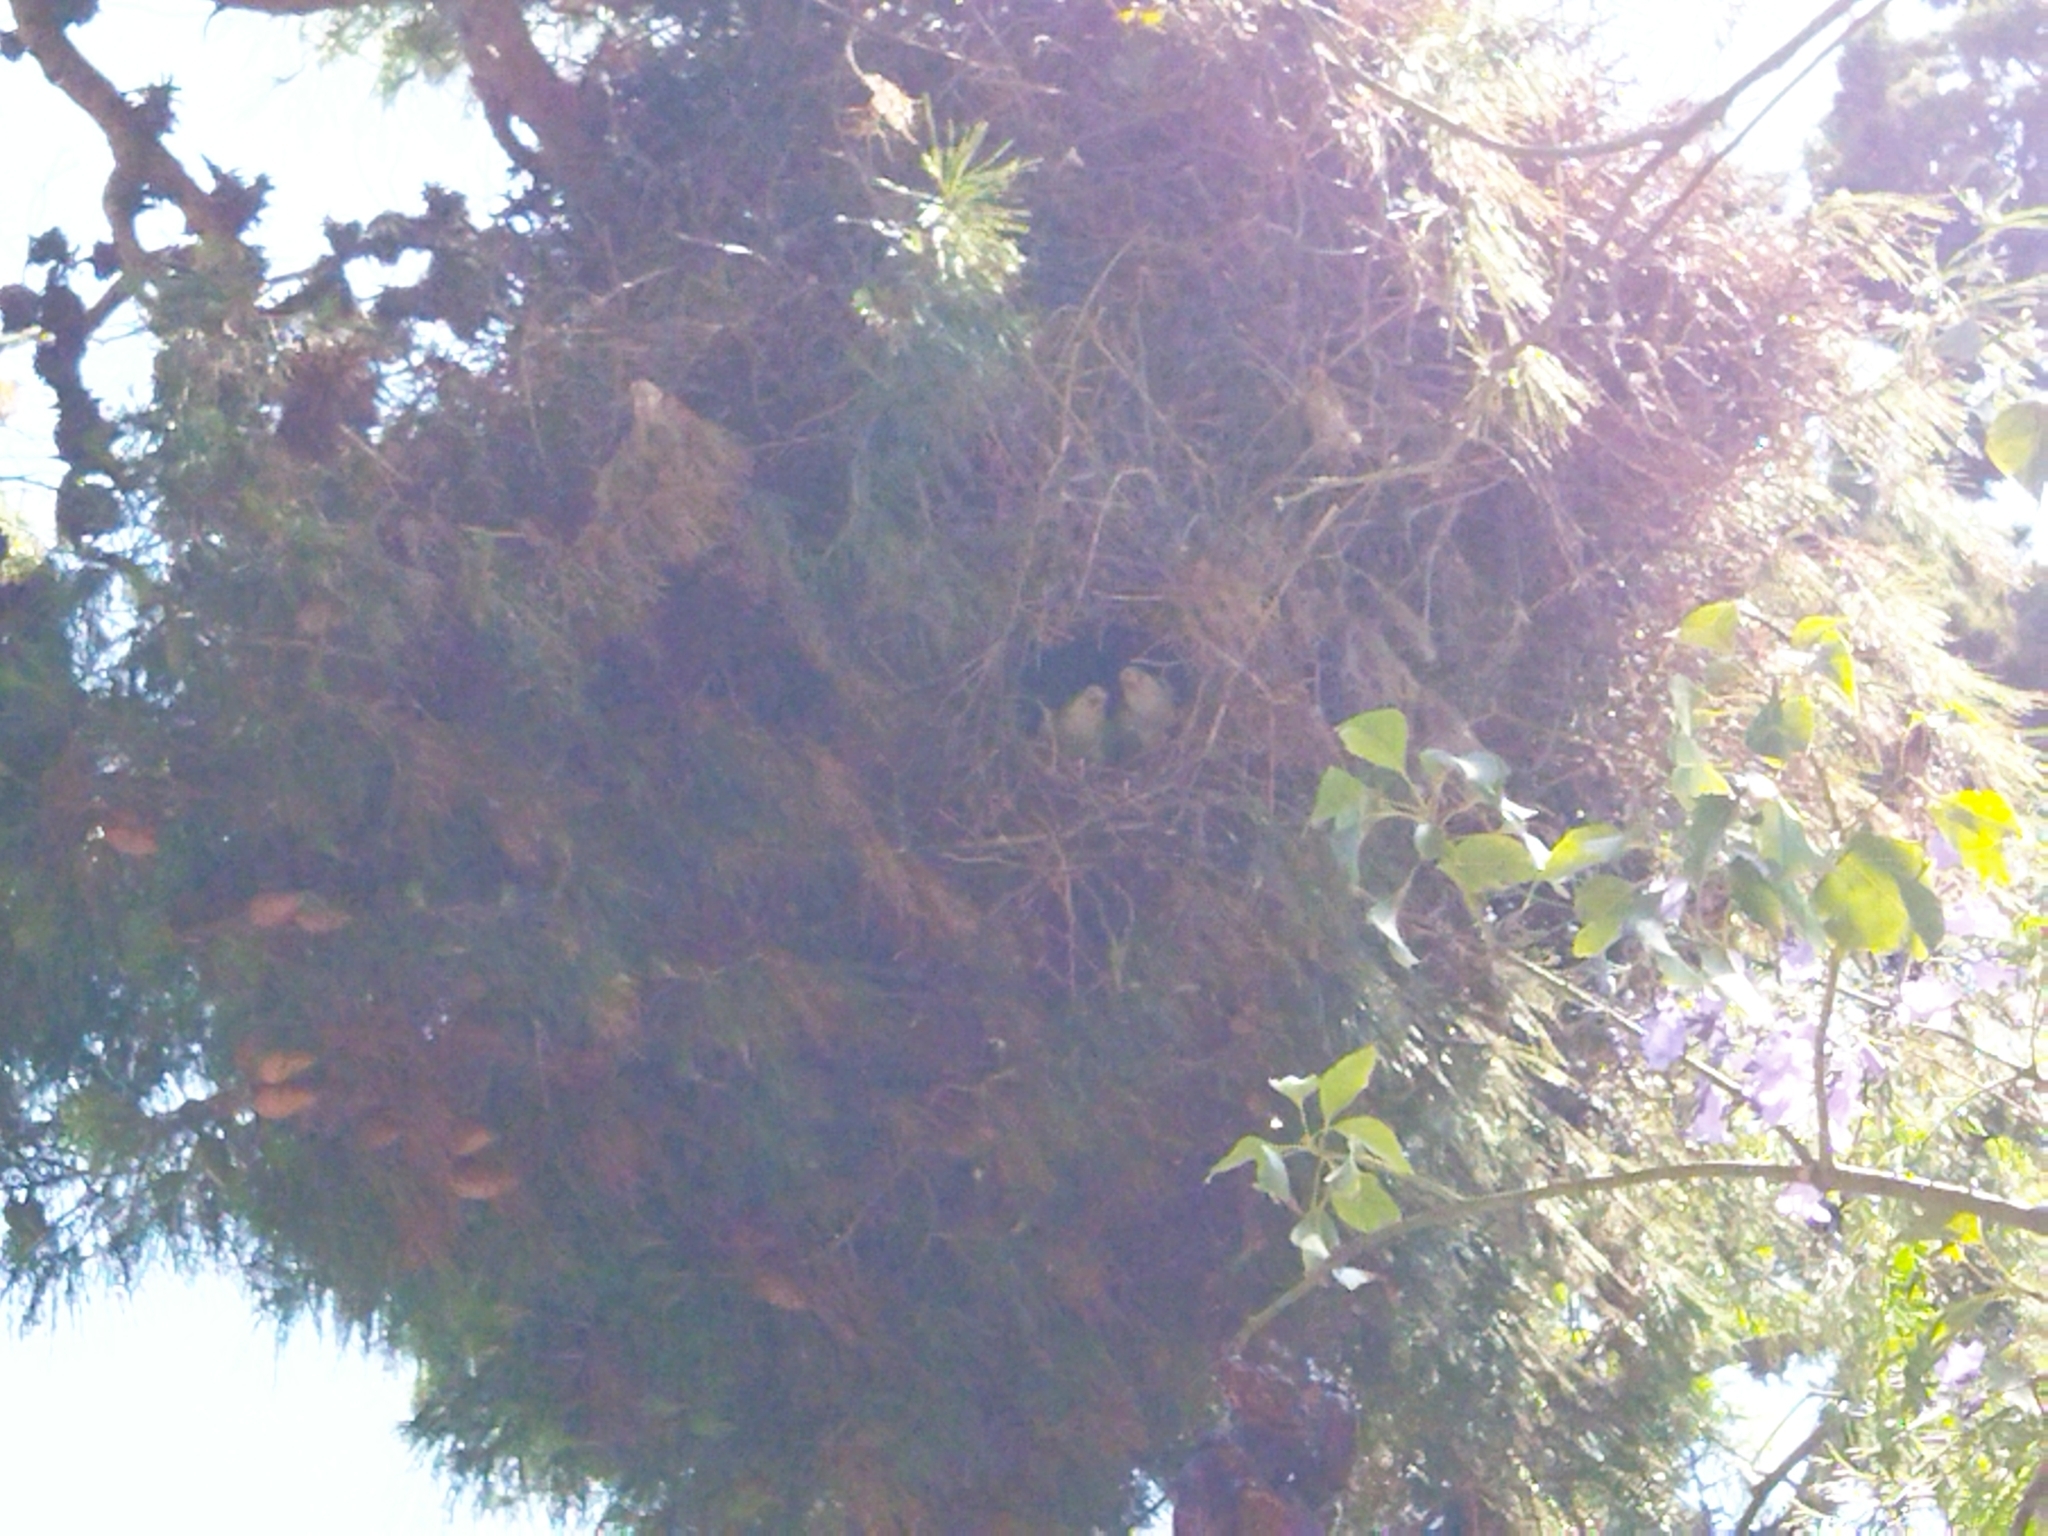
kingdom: Animalia
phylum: Chordata
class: Aves
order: Psittaciformes
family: Psittacidae
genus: Myiopsitta
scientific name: Myiopsitta monachus
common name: Monk parakeet
